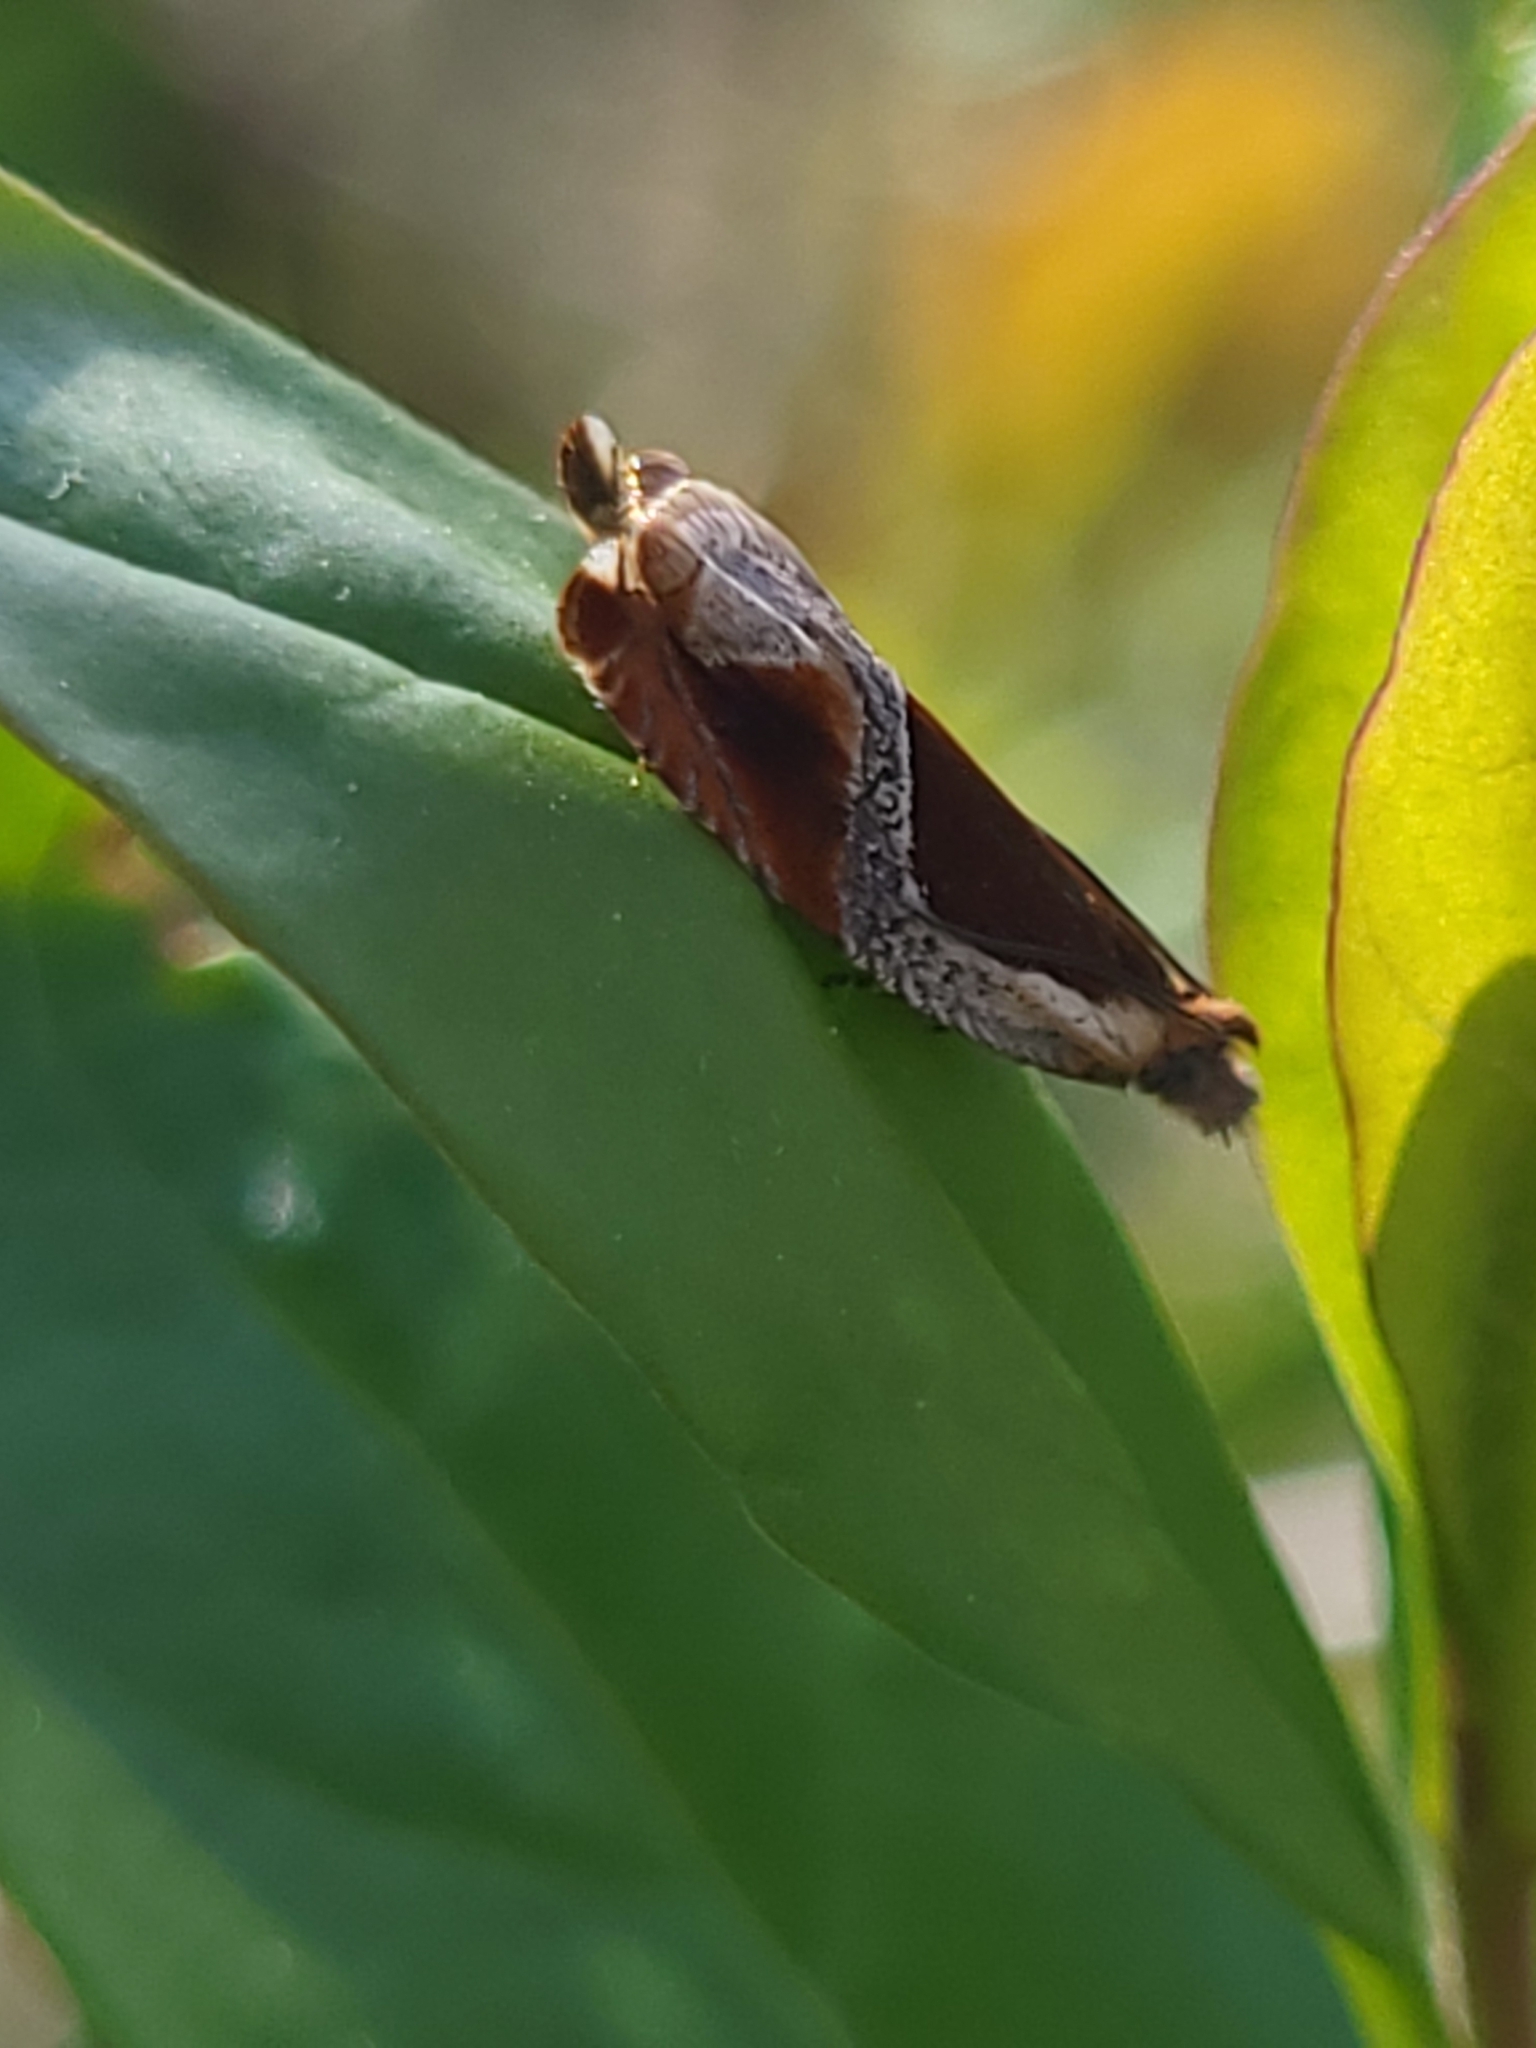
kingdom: Animalia
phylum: Arthropoda
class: Insecta
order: Lepidoptera
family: Tortricidae
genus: Ancylis
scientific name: Ancylis unculana
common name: Buckthorn roller
